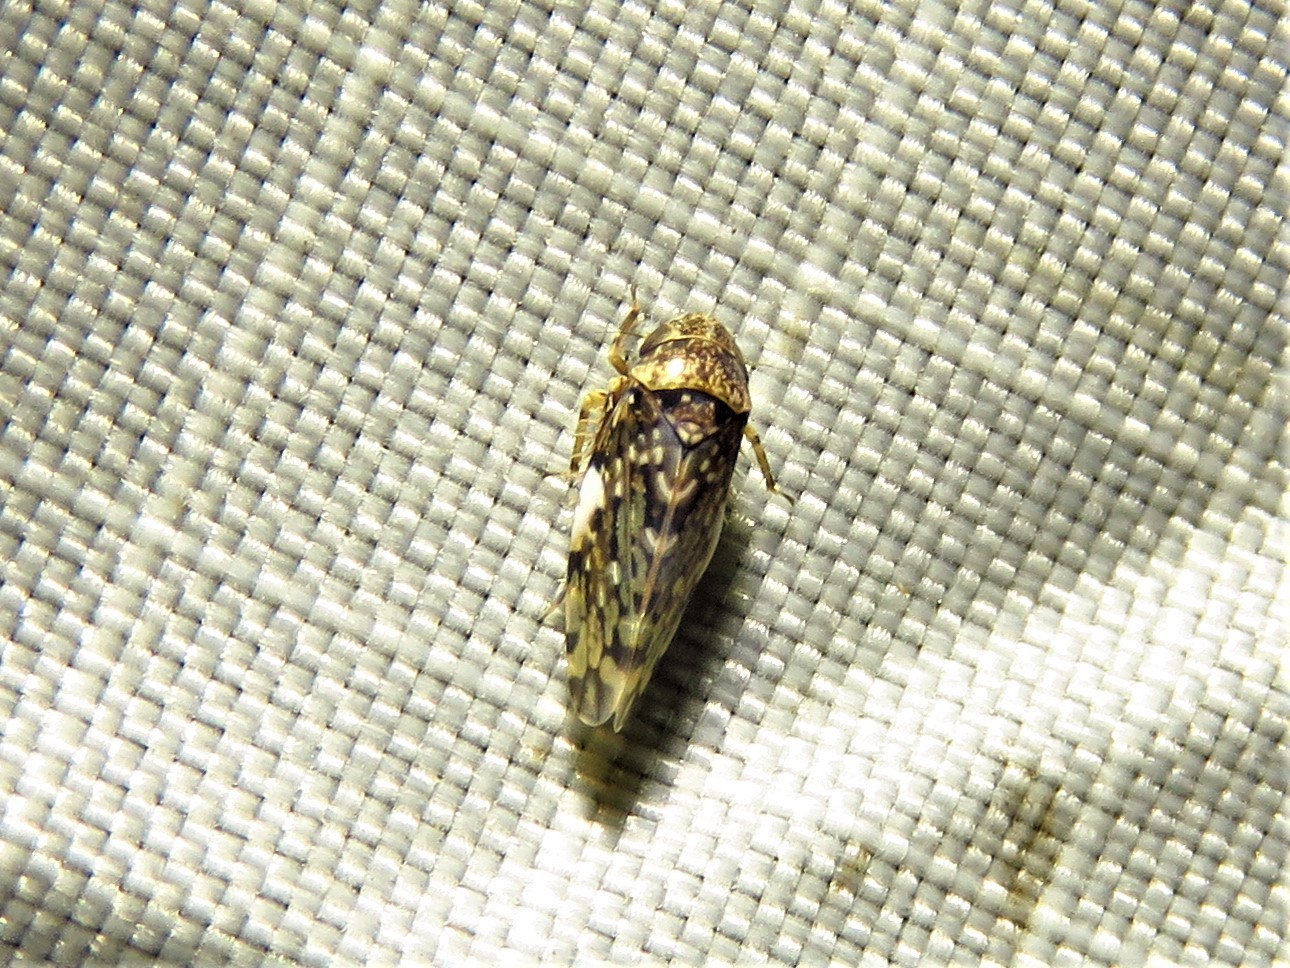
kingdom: Animalia
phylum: Arthropoda
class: Insecta
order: Hemiptera
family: Cicadellidae
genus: Xestocephalus
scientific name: Xestocephalus tessellatus
